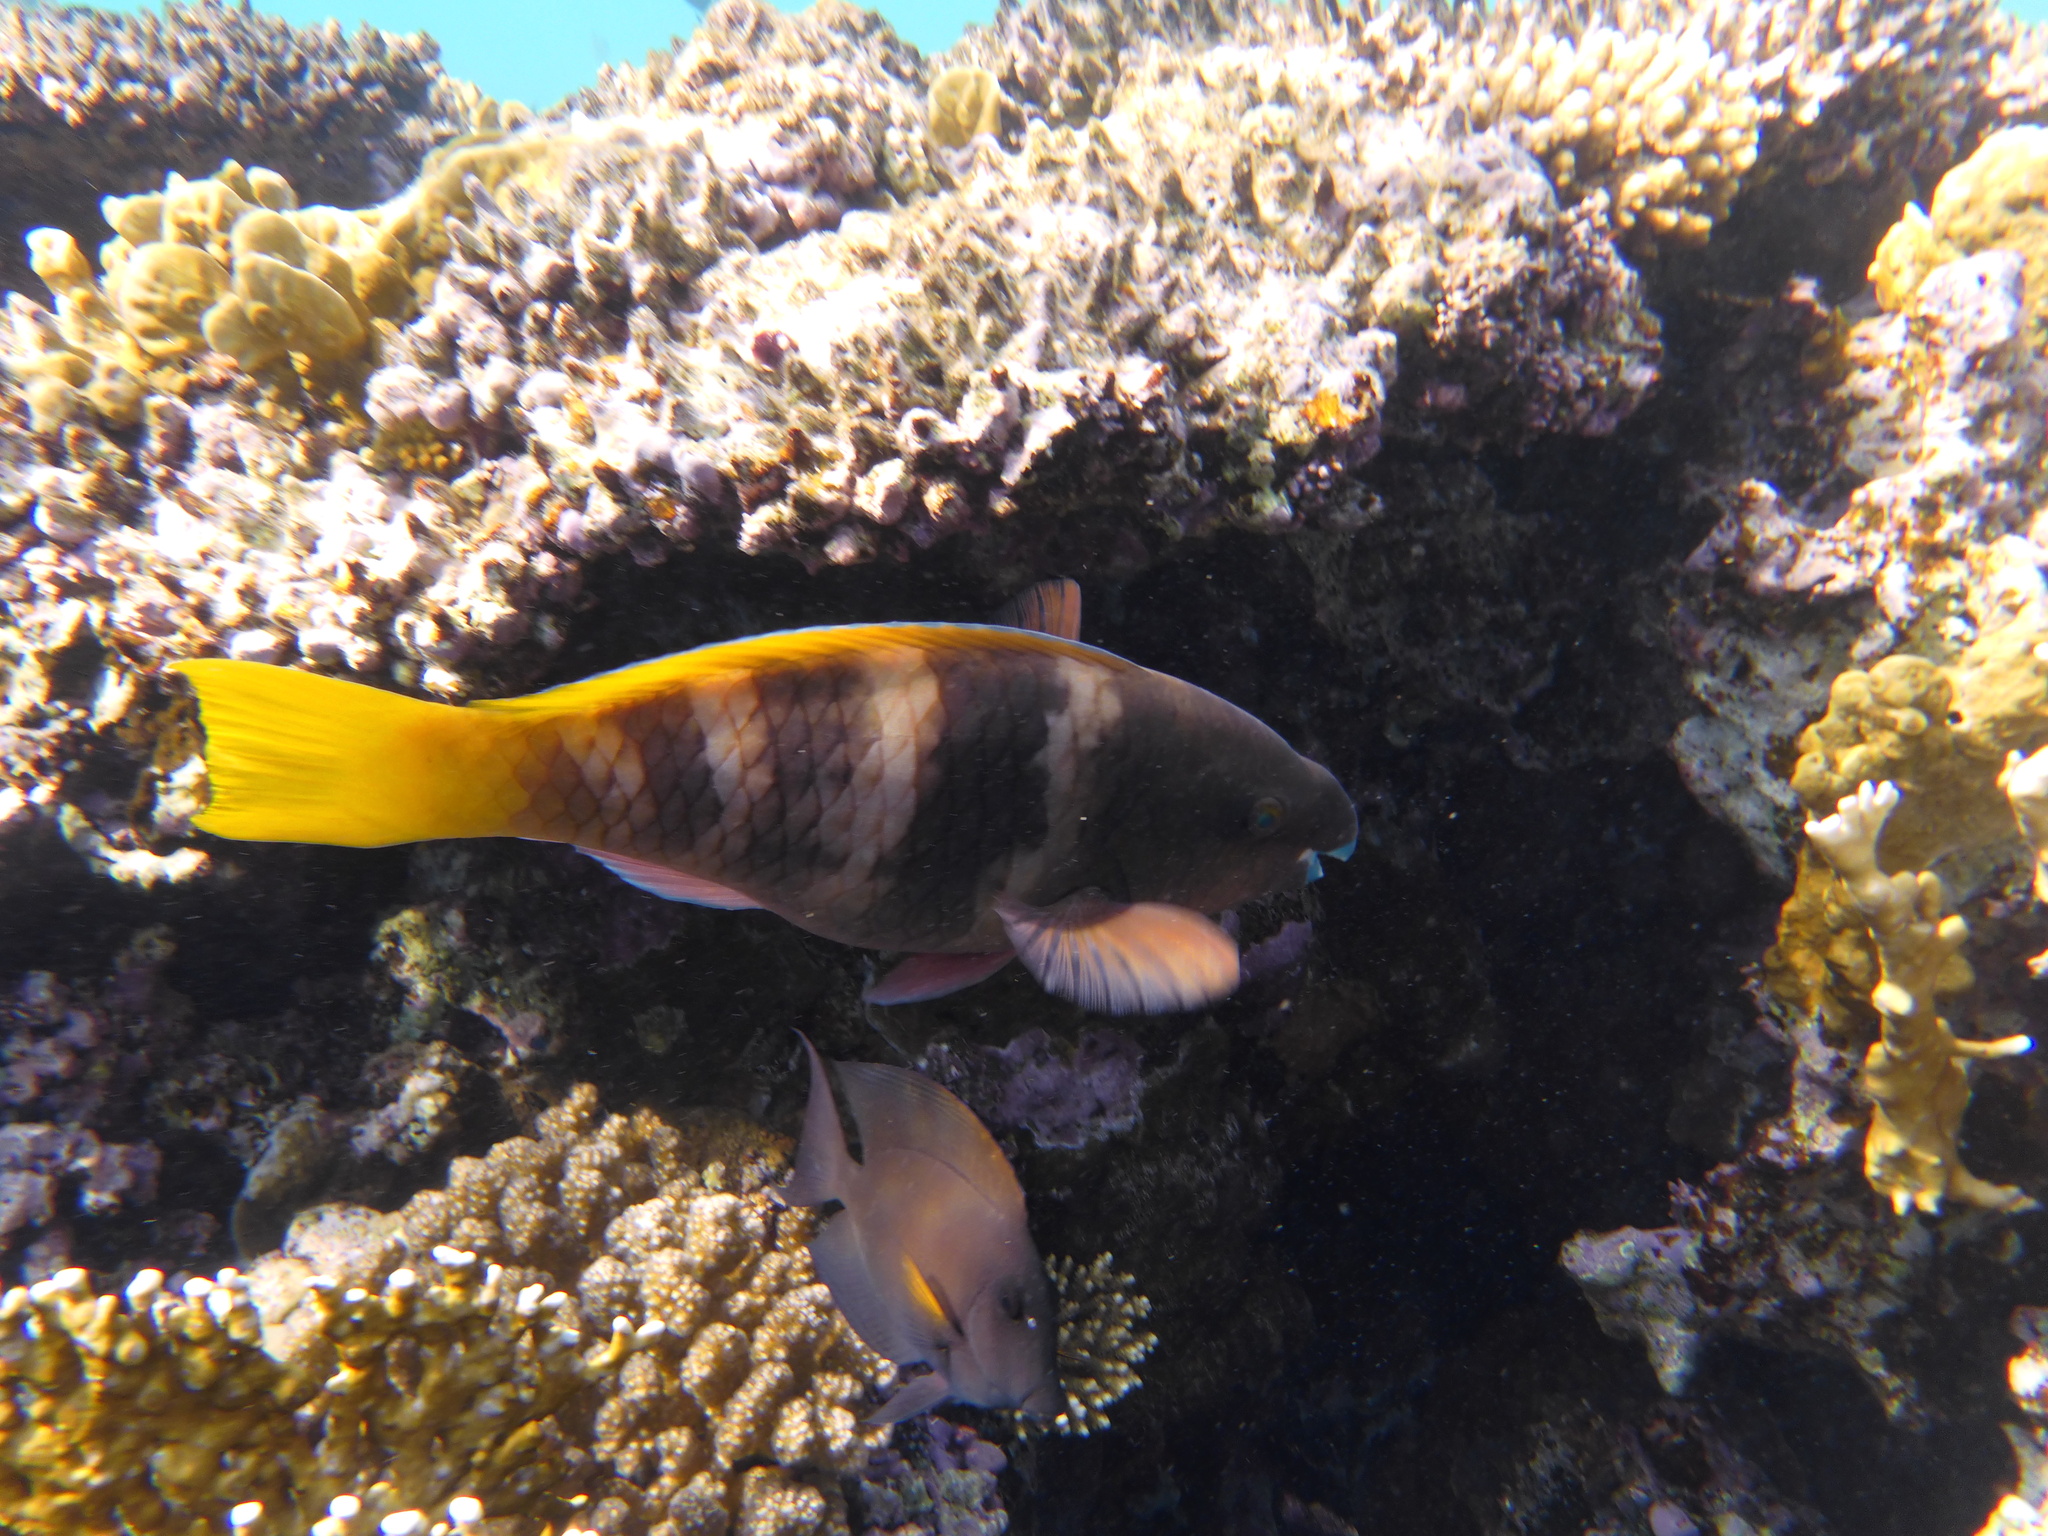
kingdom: Animalia
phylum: Chordata
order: Perciformes
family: Scaridae
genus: Scarus
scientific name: Scarus ferrugineus
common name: Rusty parrotfish
